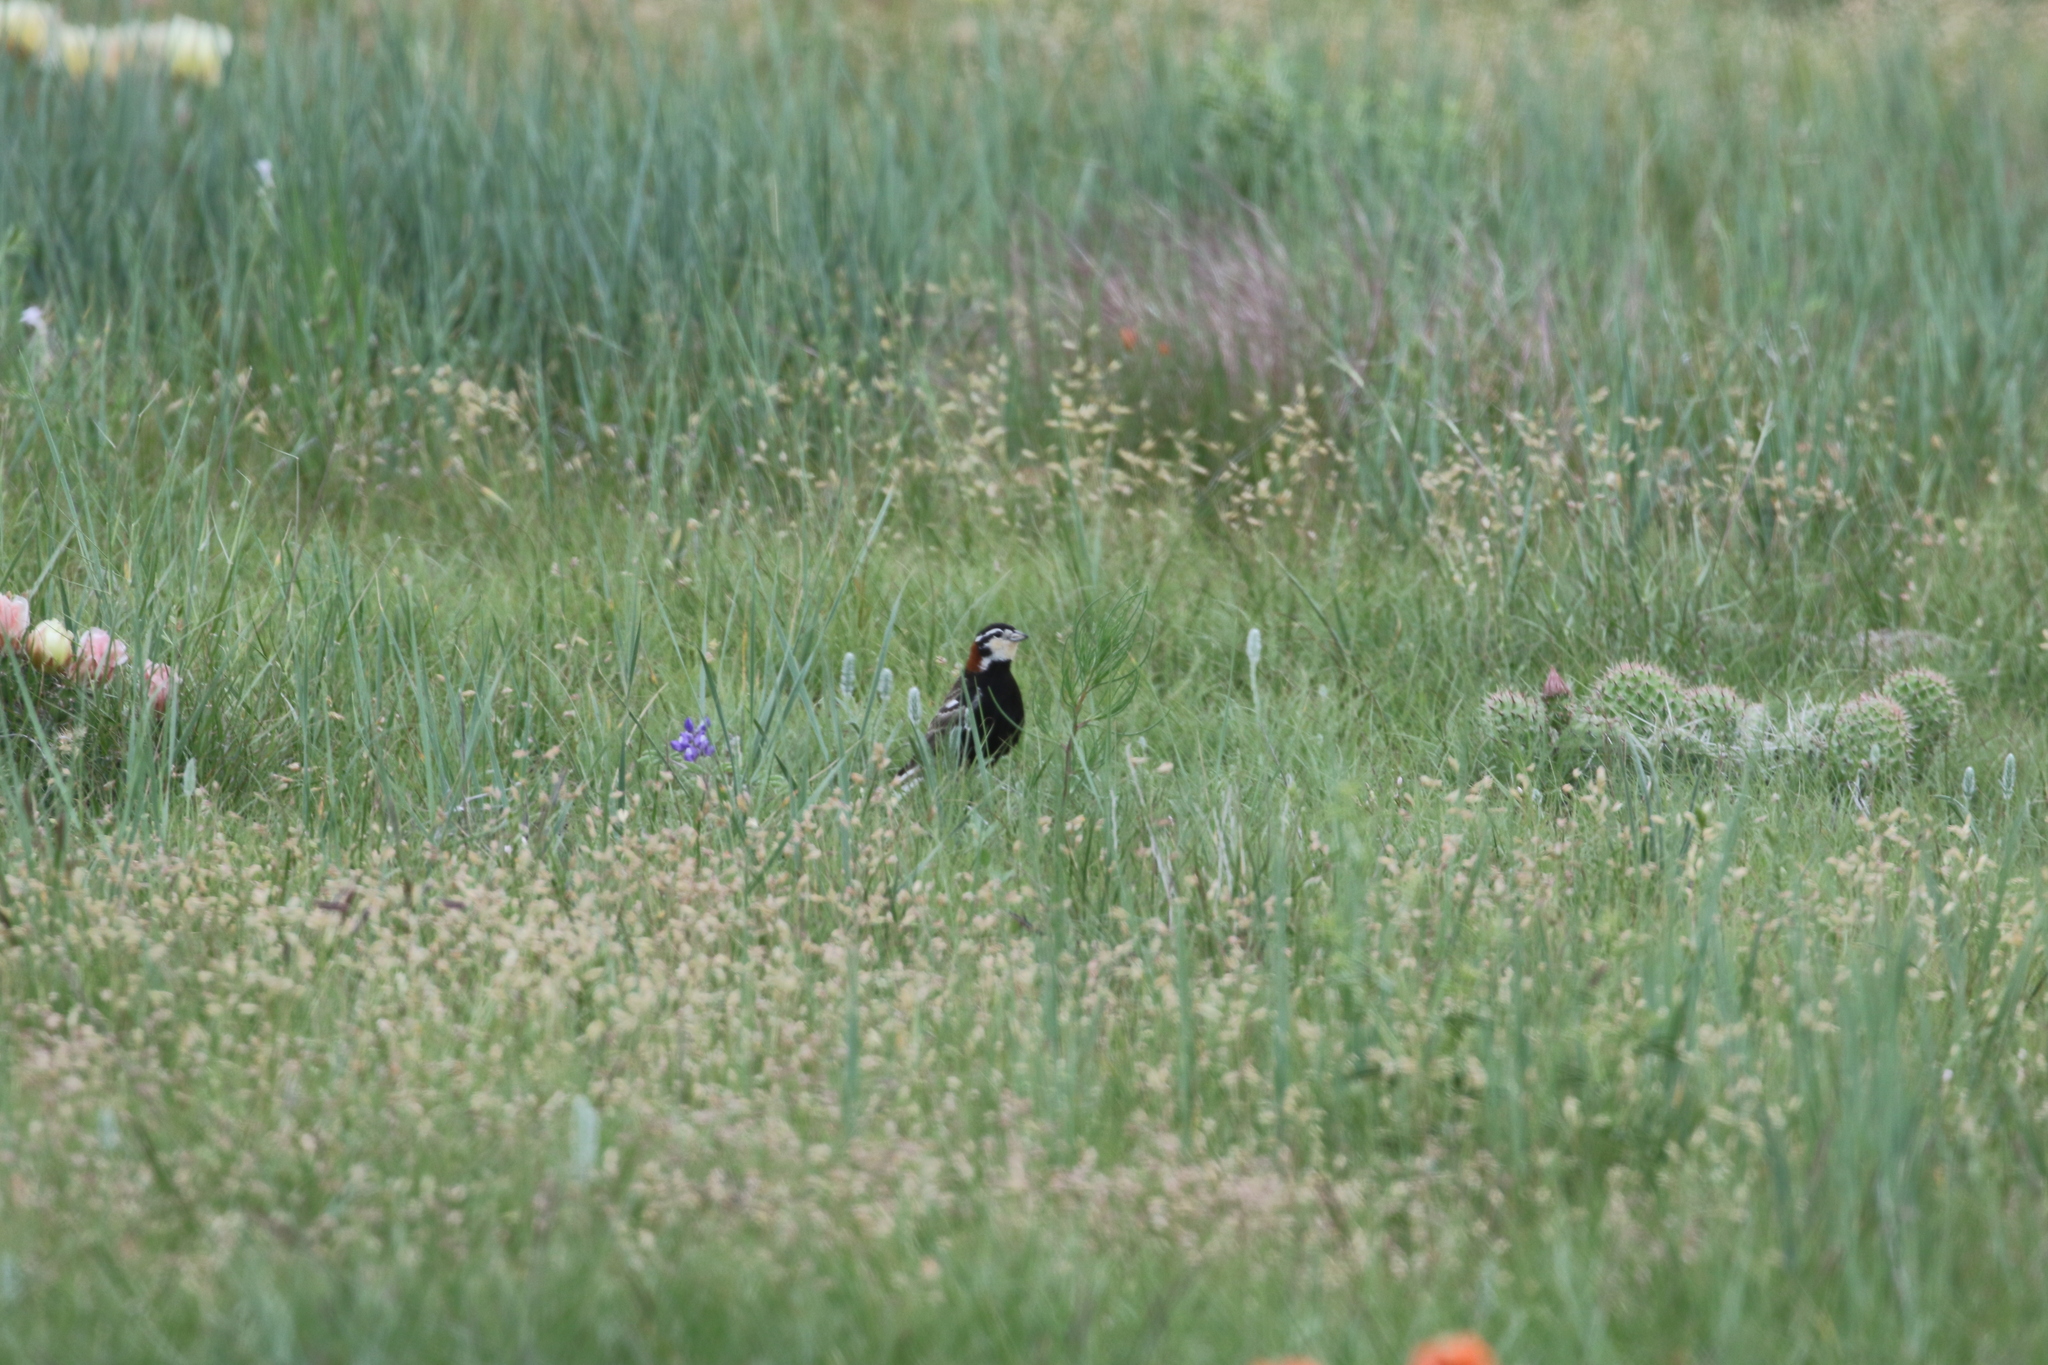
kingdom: Animalia
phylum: Chordata
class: Aves
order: Passeriformes
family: Calcariidae
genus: Calcarius
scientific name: Calcarius ornatus
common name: Chestnut-collared longspur
